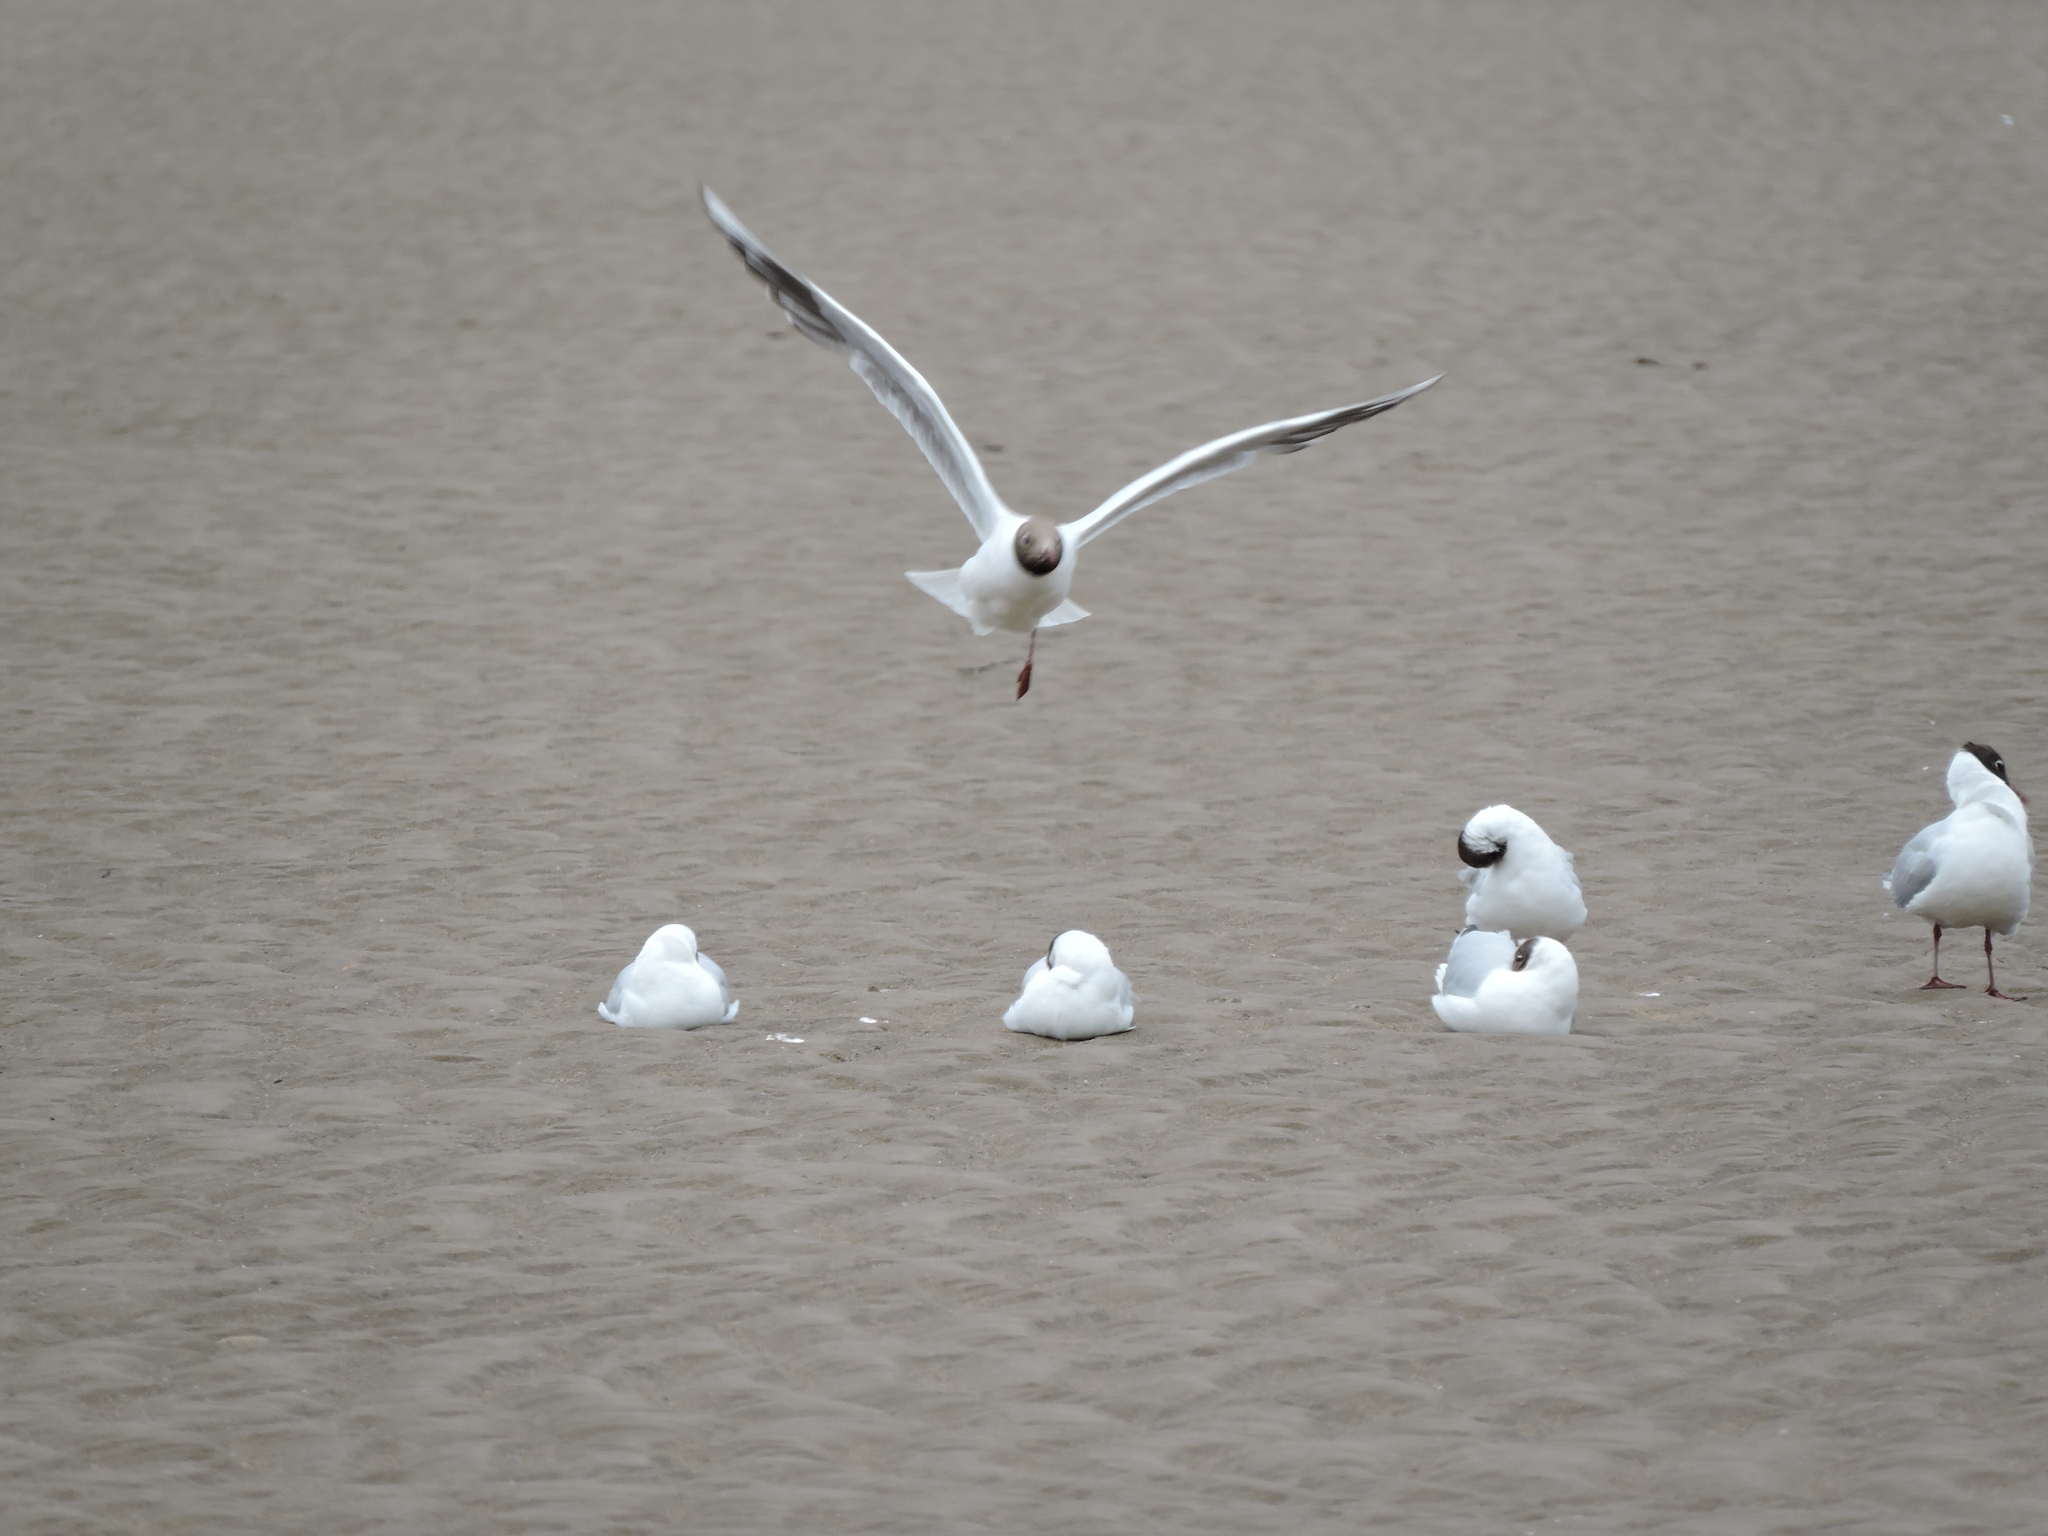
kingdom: Animalia
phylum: Chordata
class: Aves
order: Charadriiformes
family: Laridae
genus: Chroicocephalus
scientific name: Chroicocephalus ridibundus
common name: Black-headed gull
